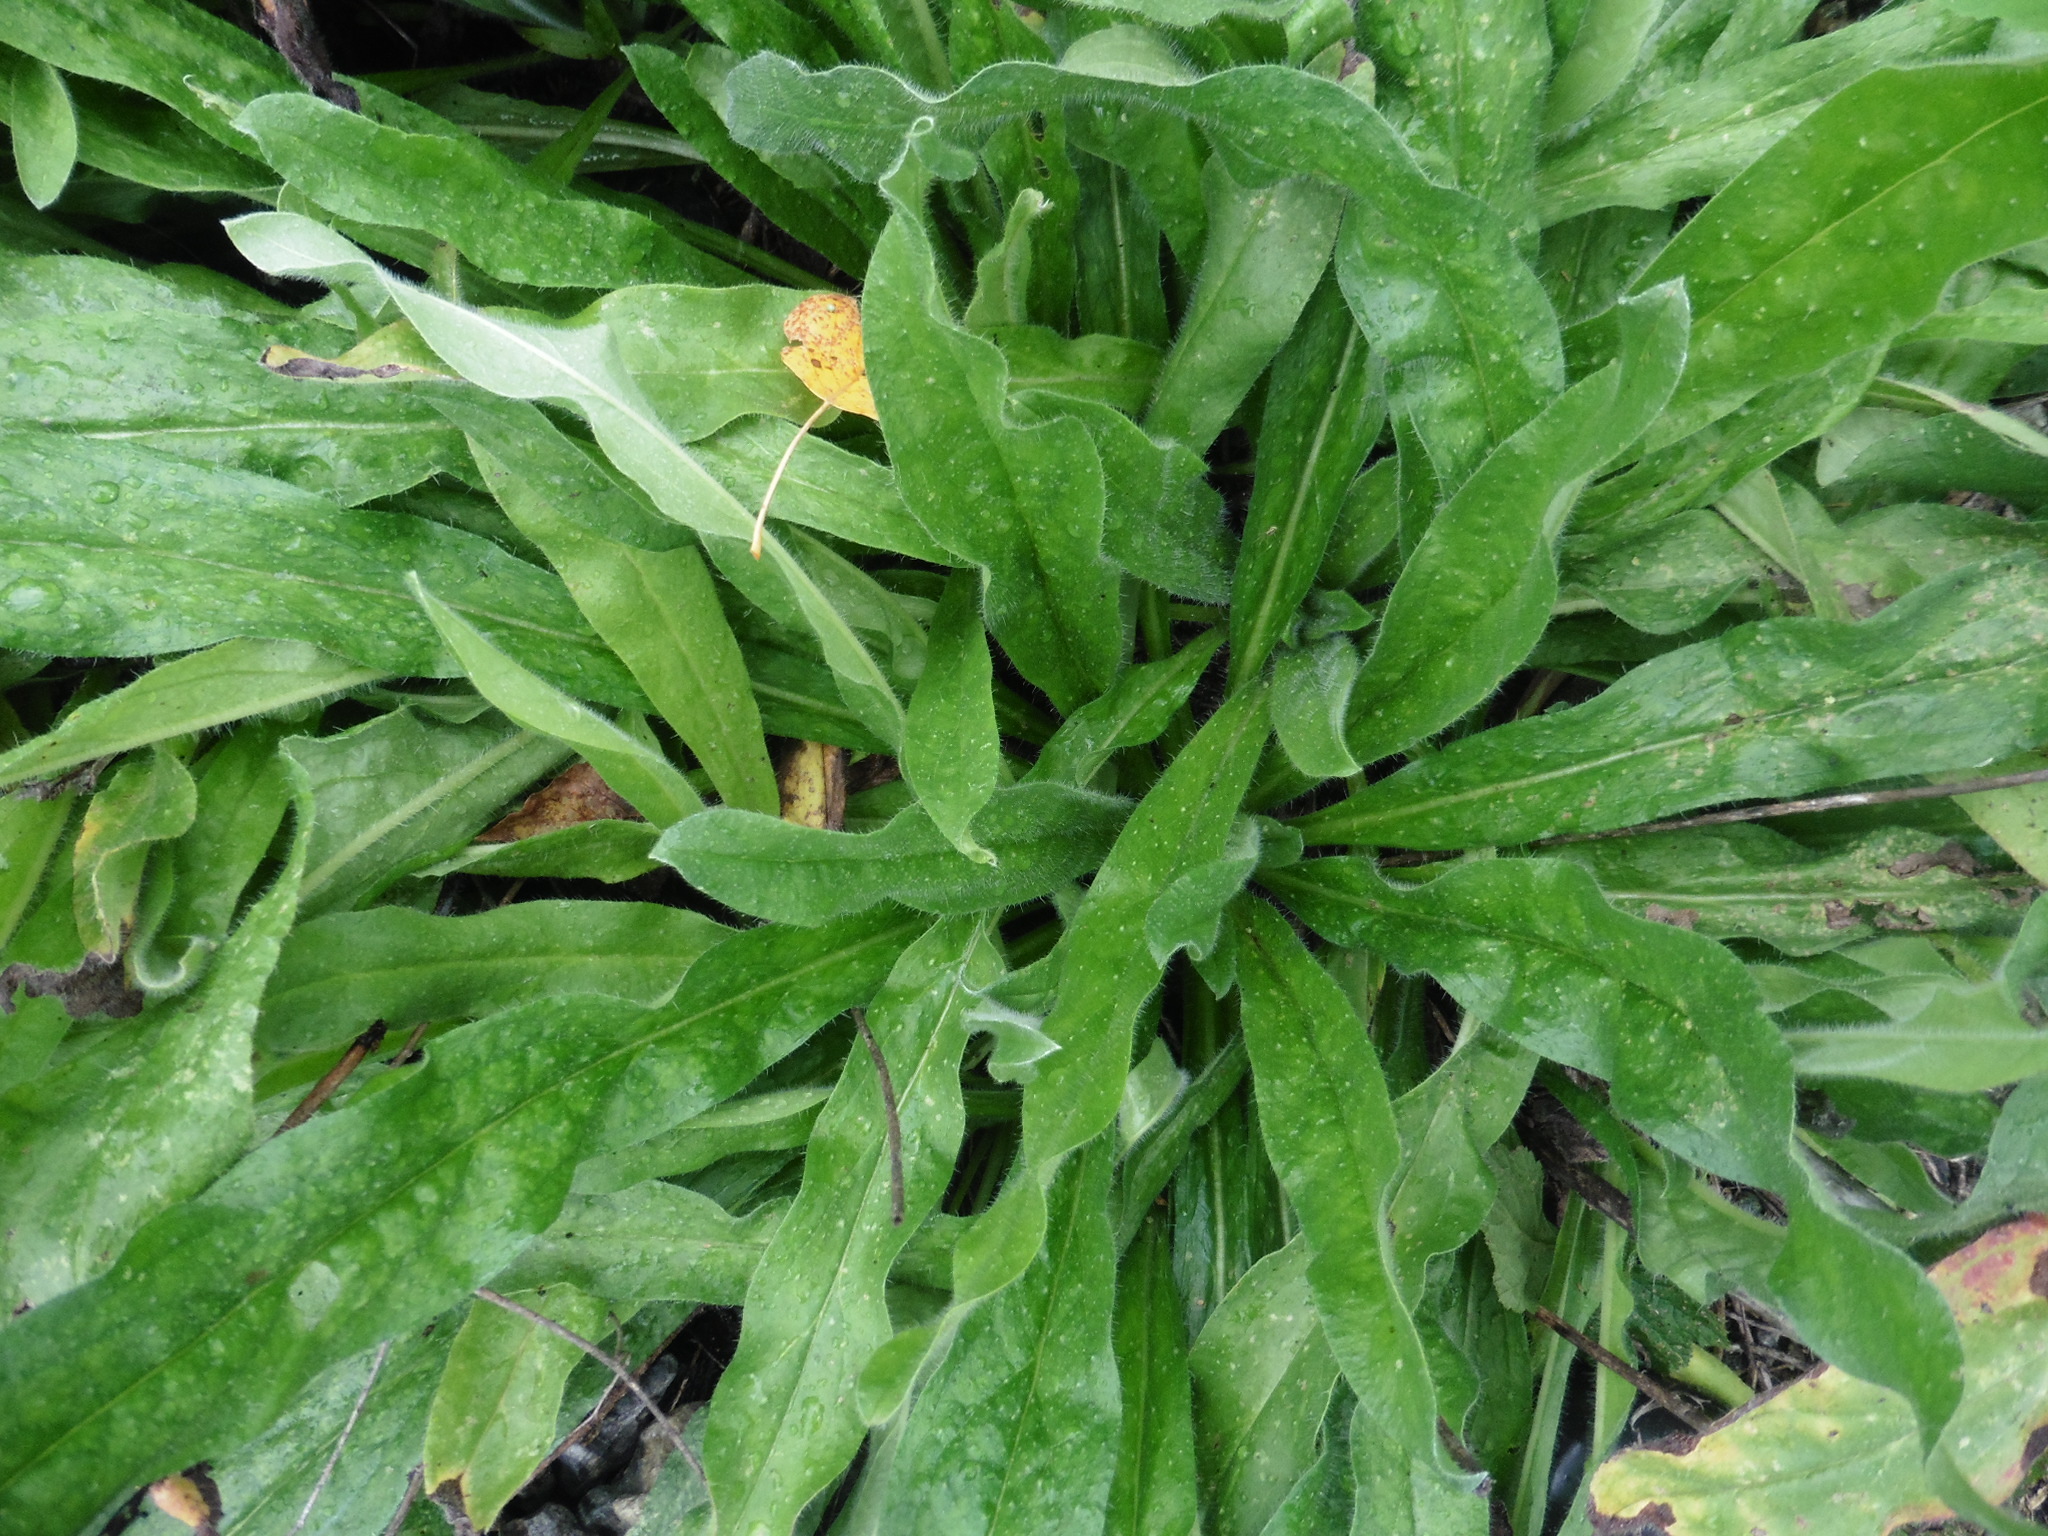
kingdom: Plantae
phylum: Tracheophyta
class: Magnoliopsida
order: Boraginales
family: Boraginaceae
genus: Echium
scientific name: Echium vulgare
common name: Common viper's bugloss
